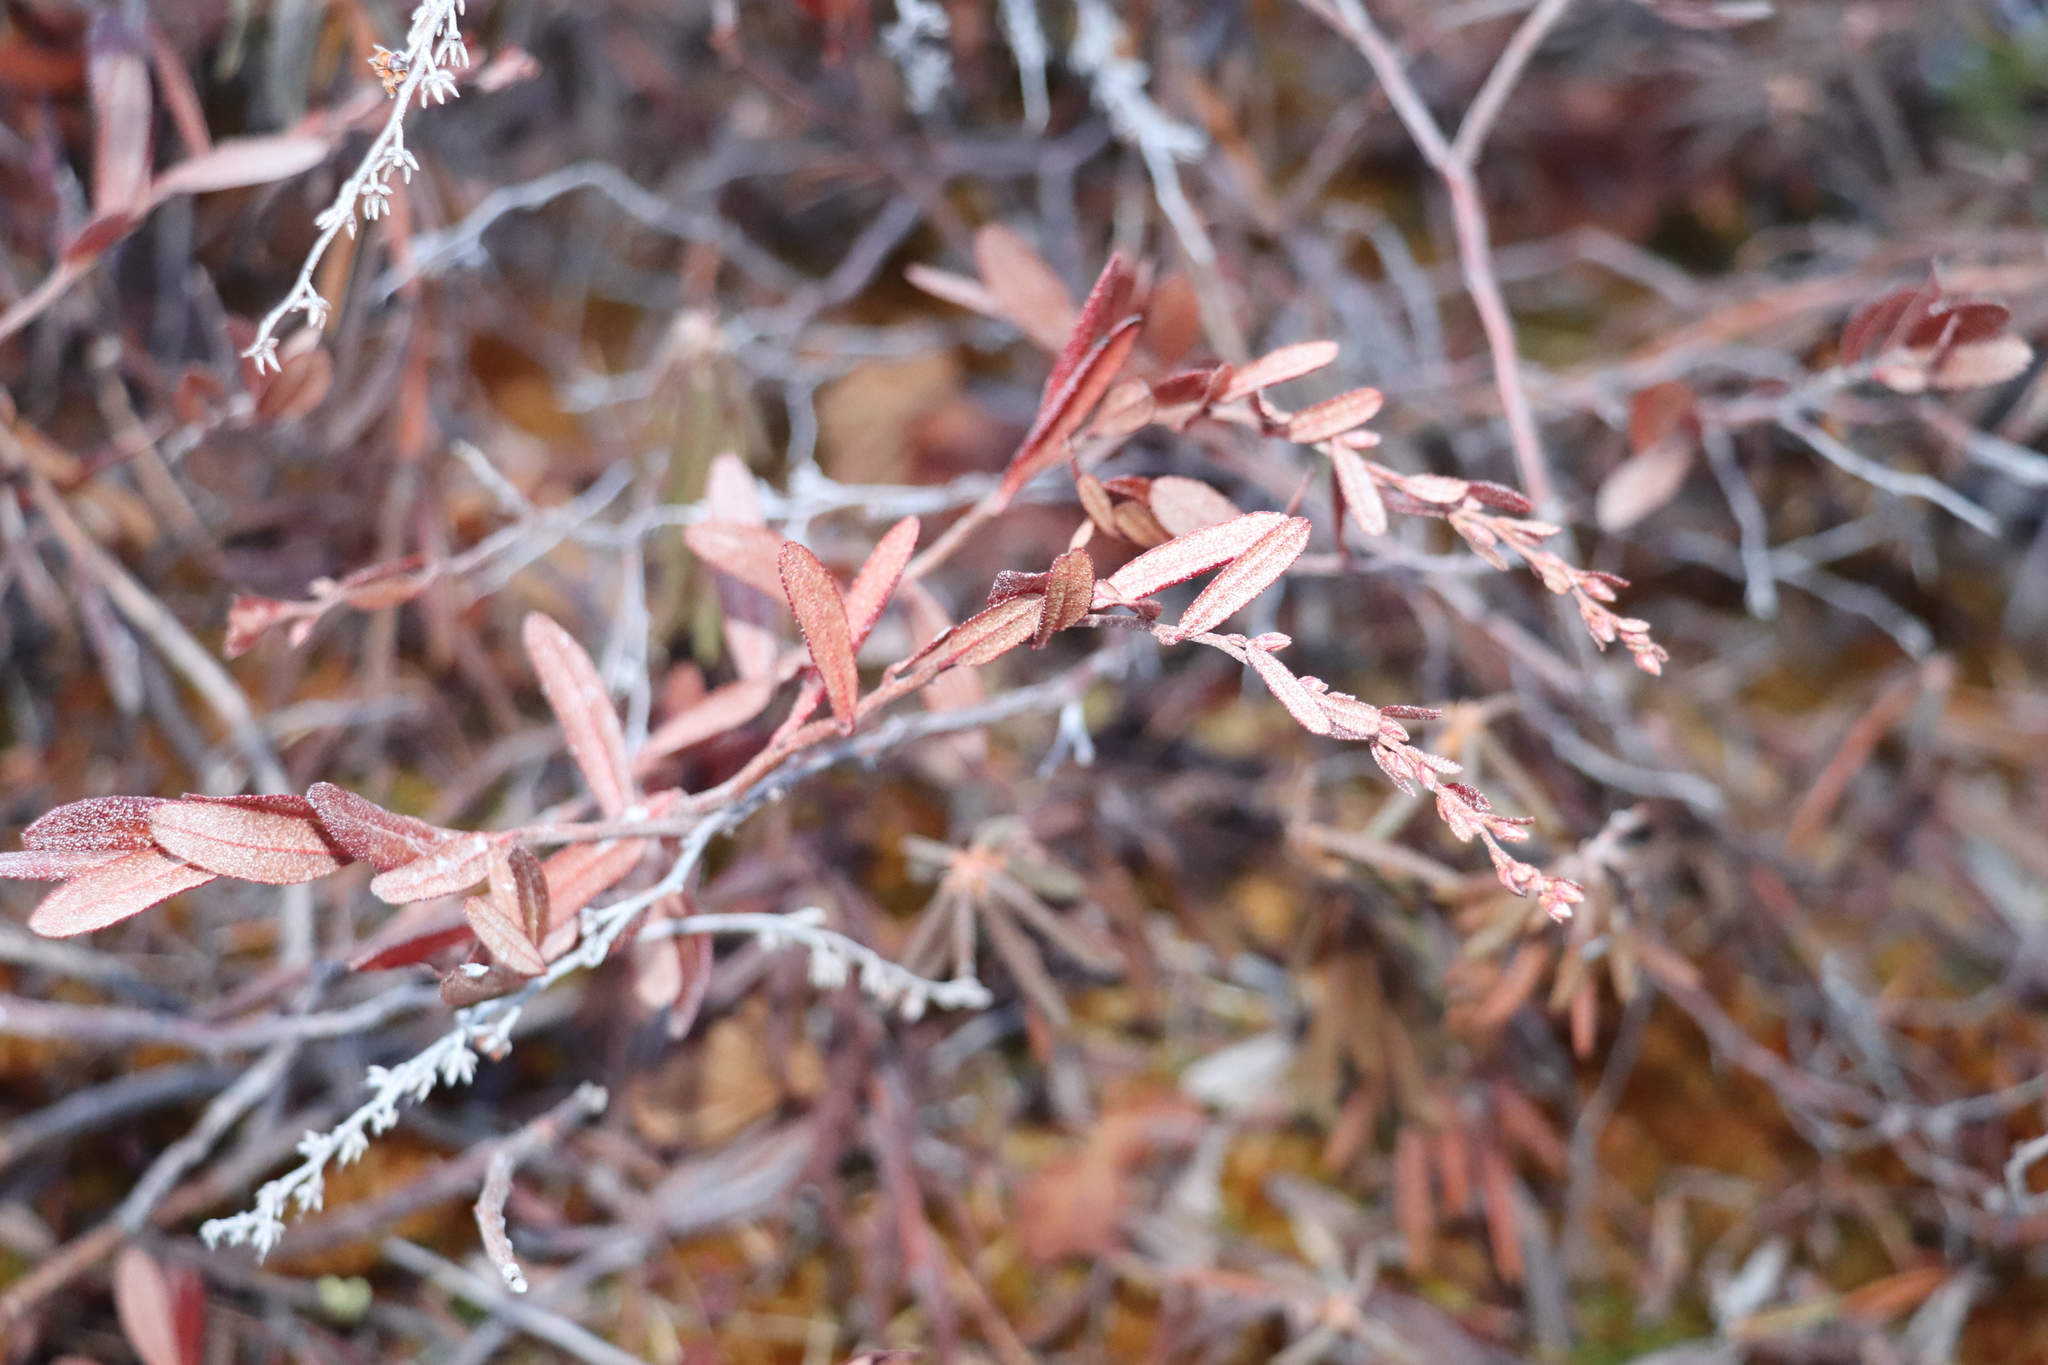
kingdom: Plantae
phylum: Tracheophyta
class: Magnoliopsida
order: Ericales
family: Ericaceae
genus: Chamaedaphne
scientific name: Chamaedaphne calyculata
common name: Leatherleaf
